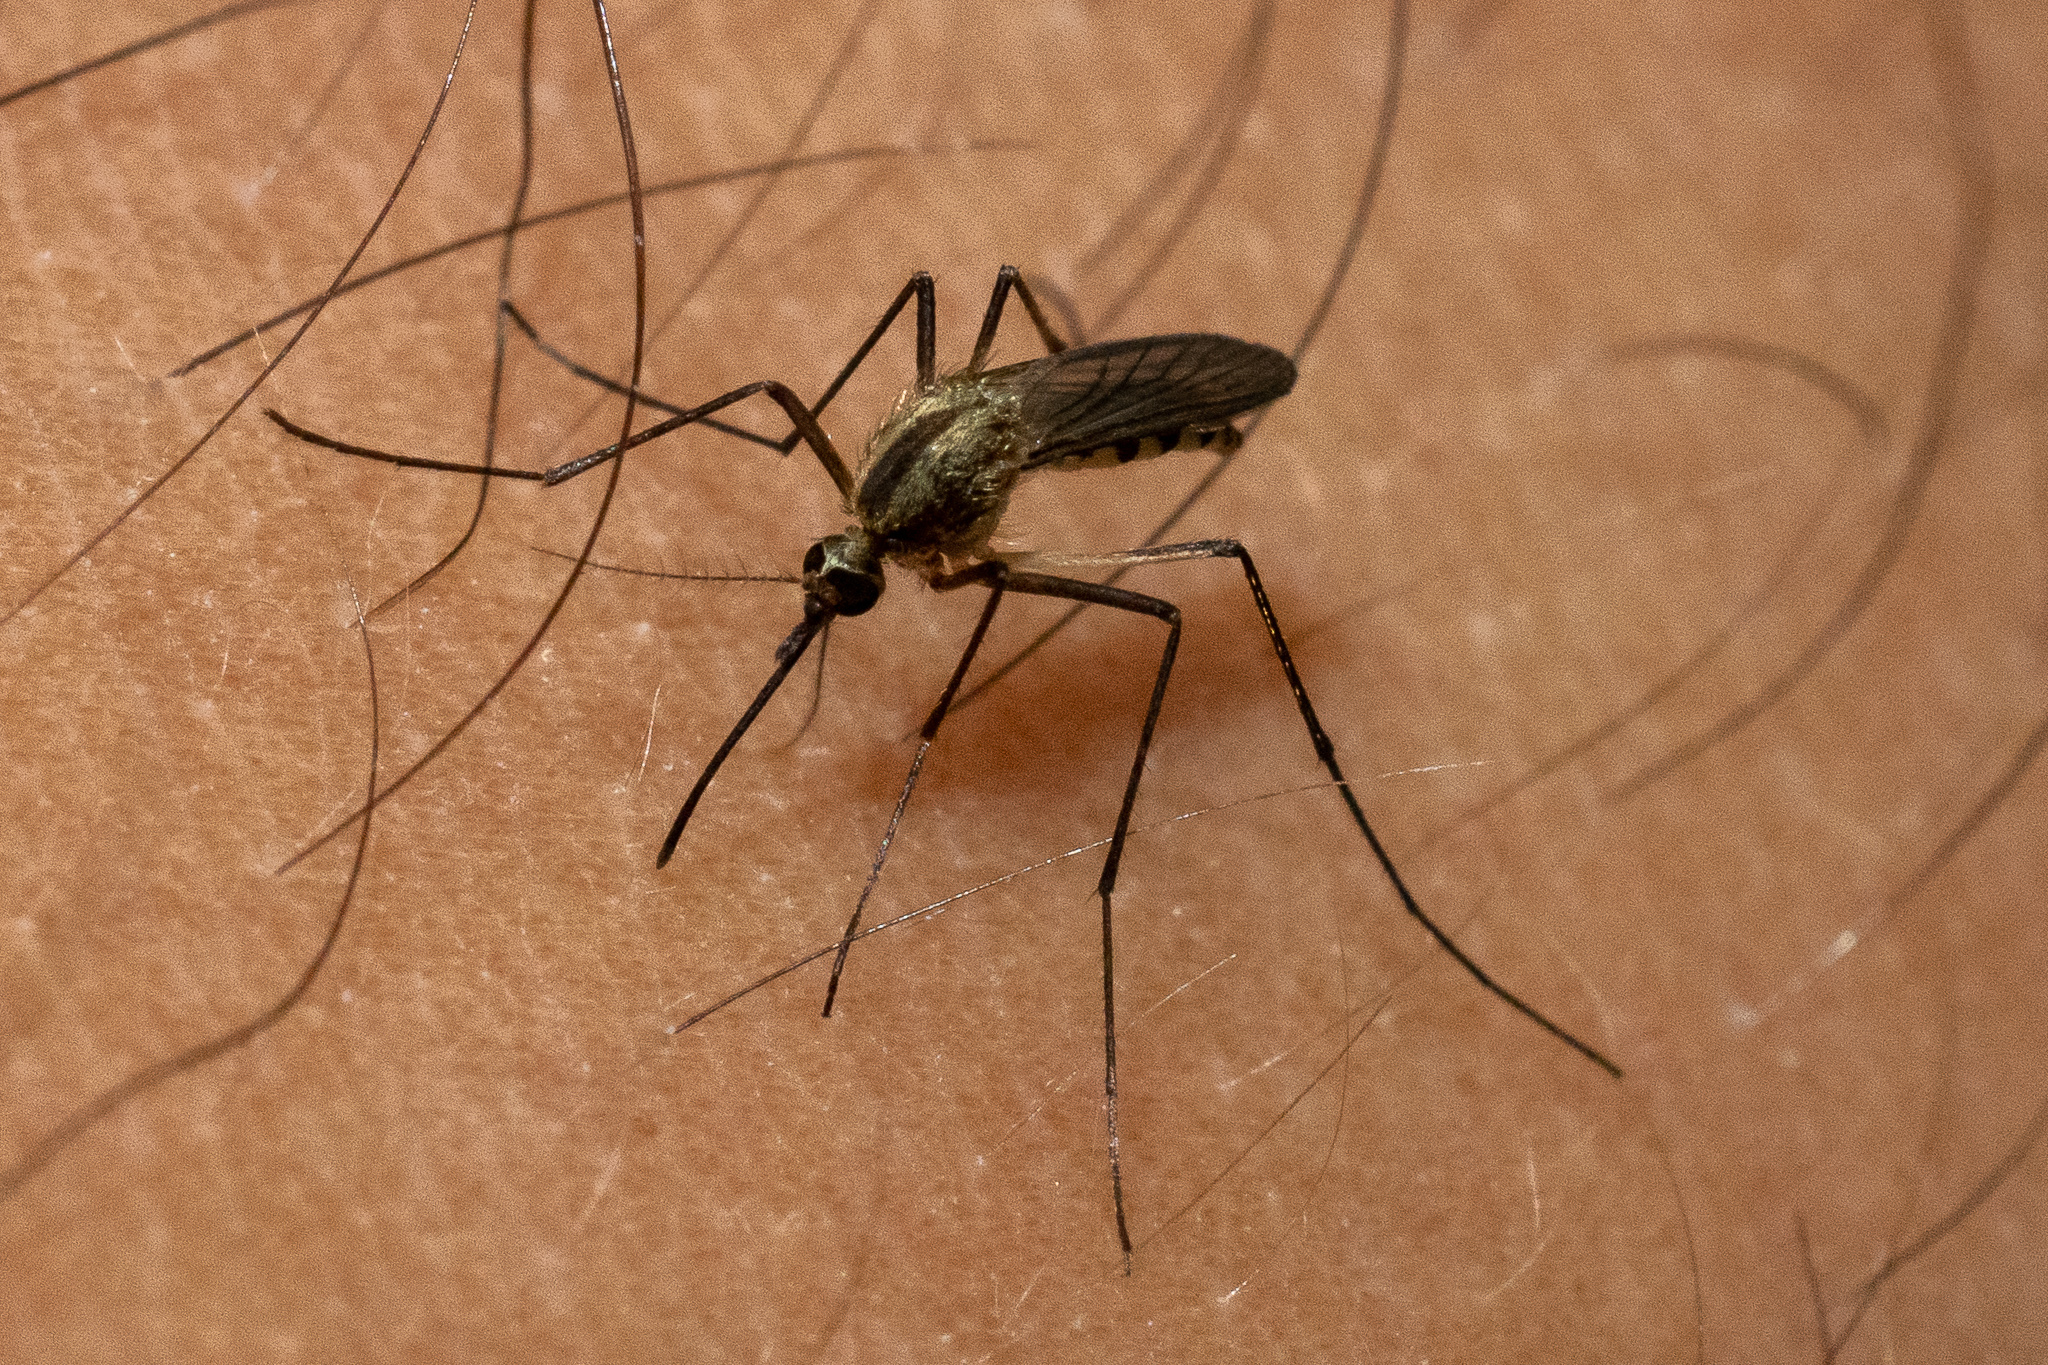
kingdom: Animalia
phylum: Arthropoda
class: Insecta
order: Diptera
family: Culicidae
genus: Aedes
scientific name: Aedes trivittatus
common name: Plains floodwater mosquito
